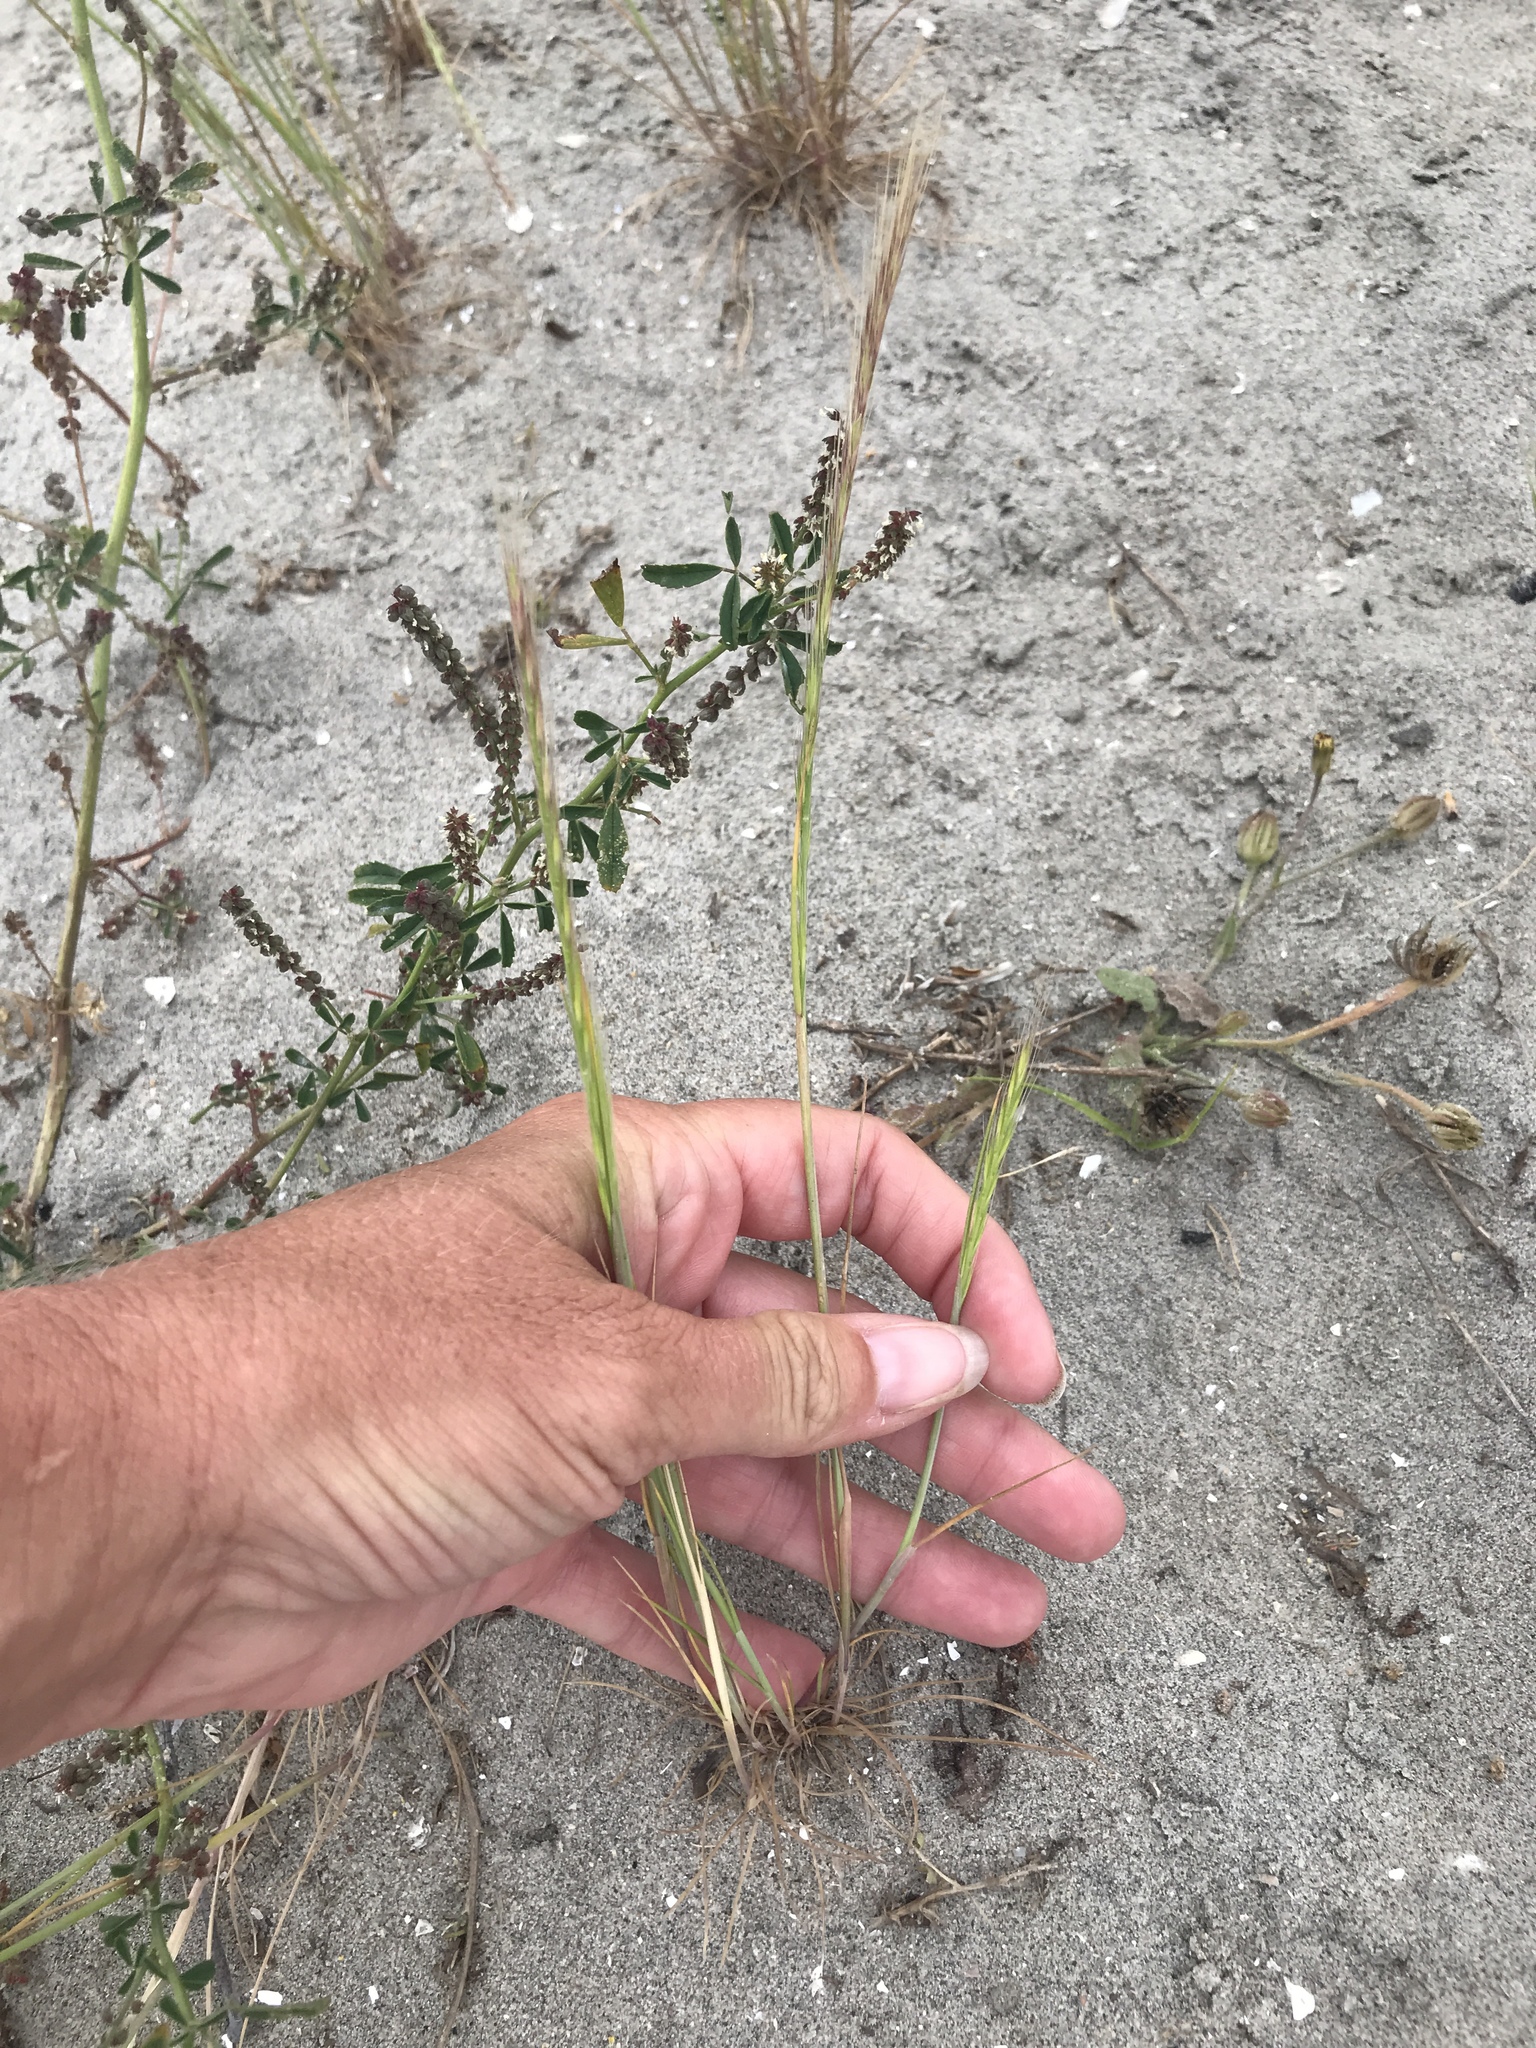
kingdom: Plantae
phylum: Tracheophyta
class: Liliopsida
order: Poales
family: Poaceae
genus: Festuca
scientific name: Festuca myuros
